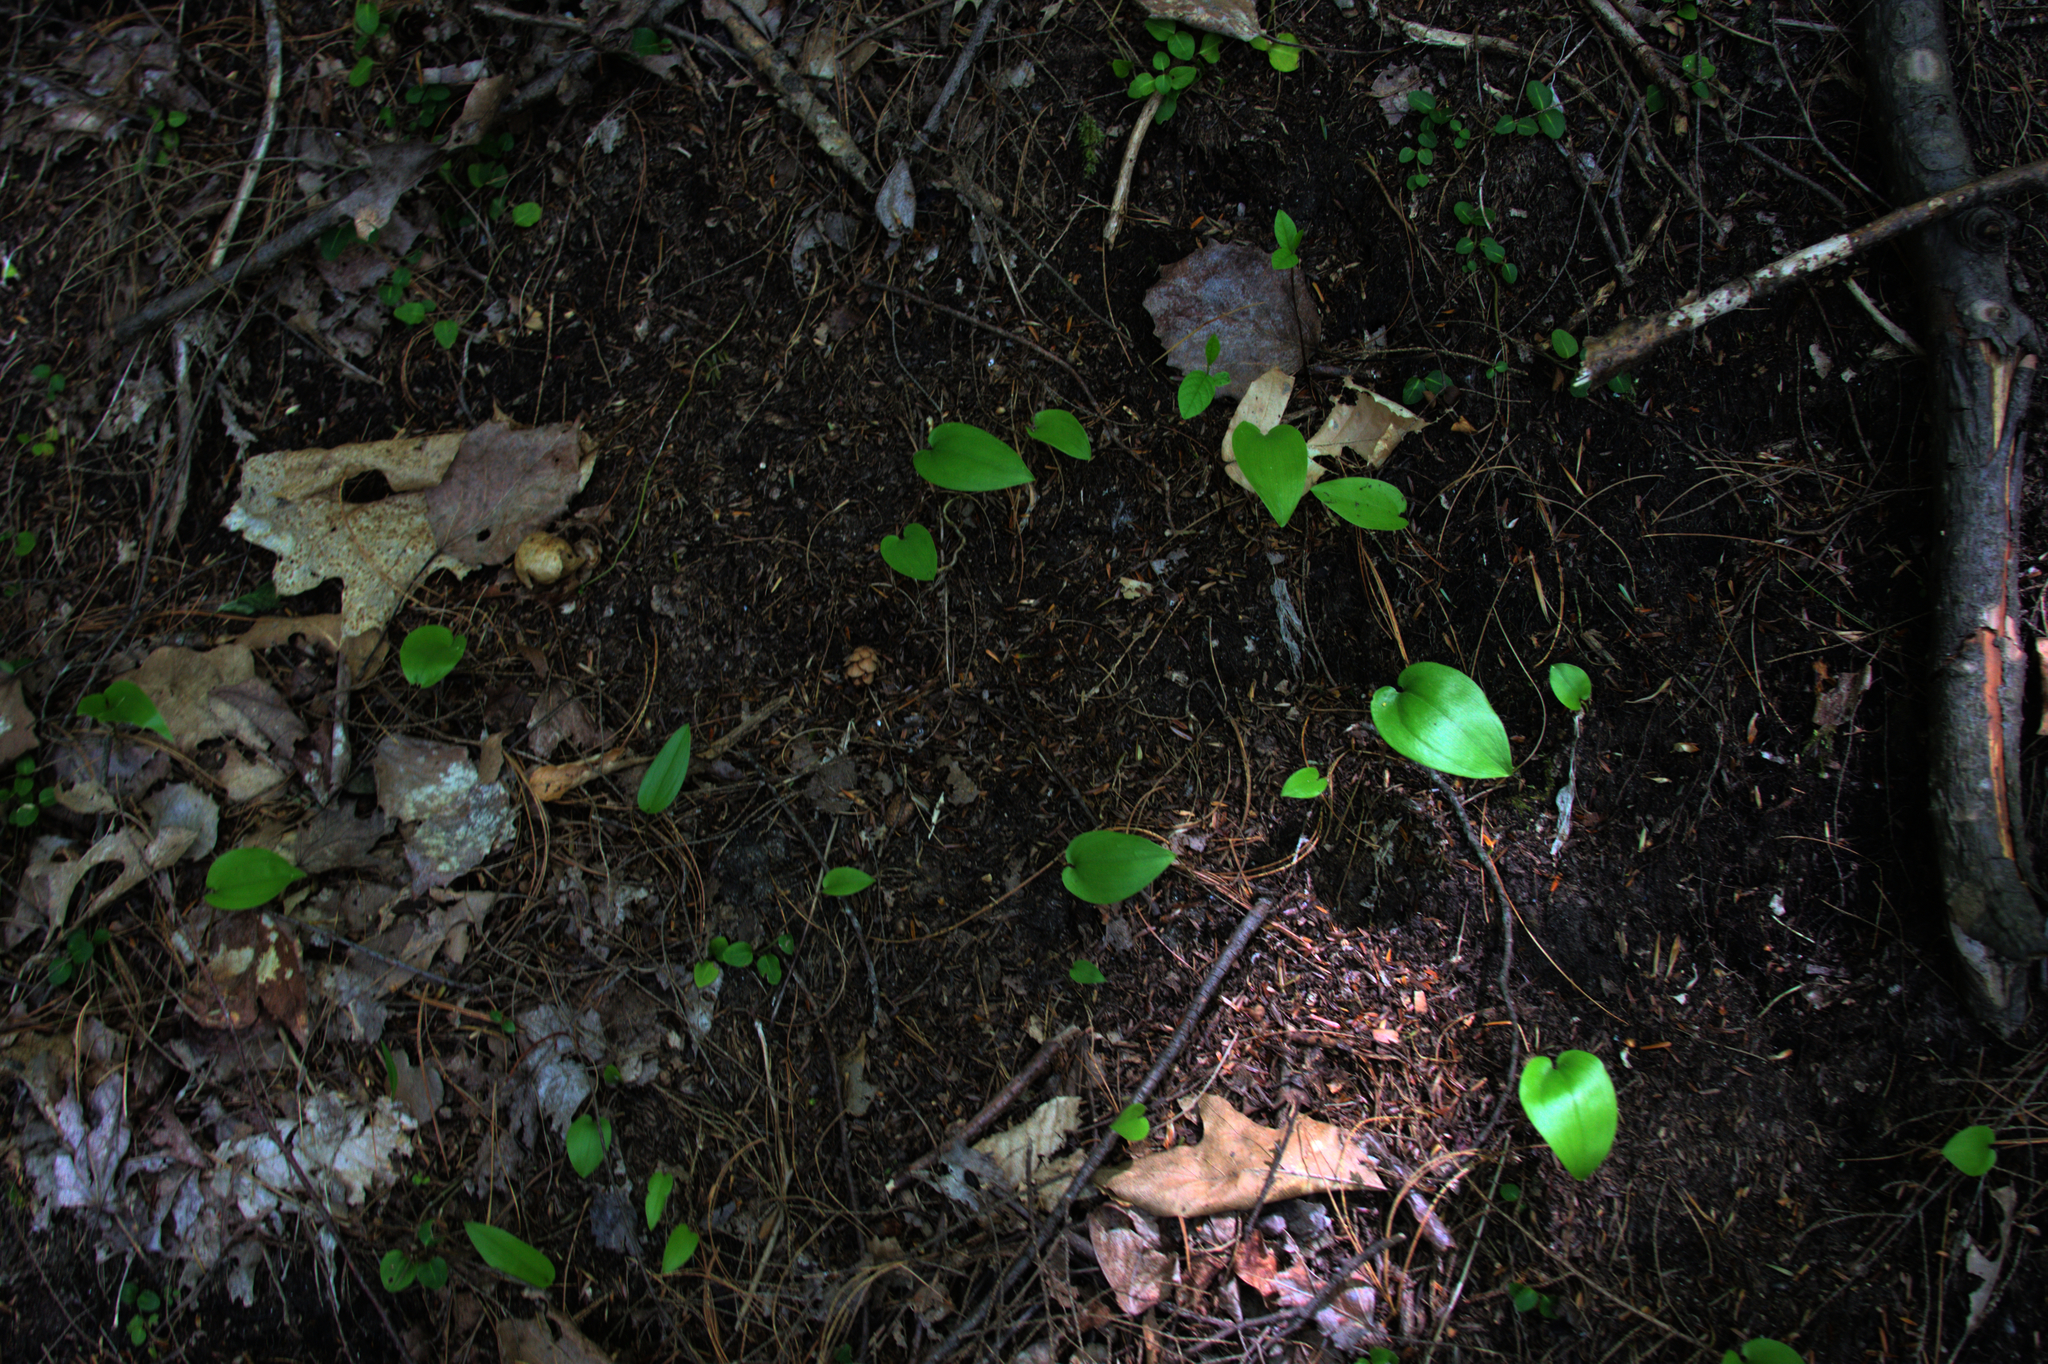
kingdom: Plantae
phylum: Tracheophyta
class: Liliopsida
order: Asparagales
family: Asparagaceae
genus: Maianthemum
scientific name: Maianthemum canadense
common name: False lily-of-the-valley
